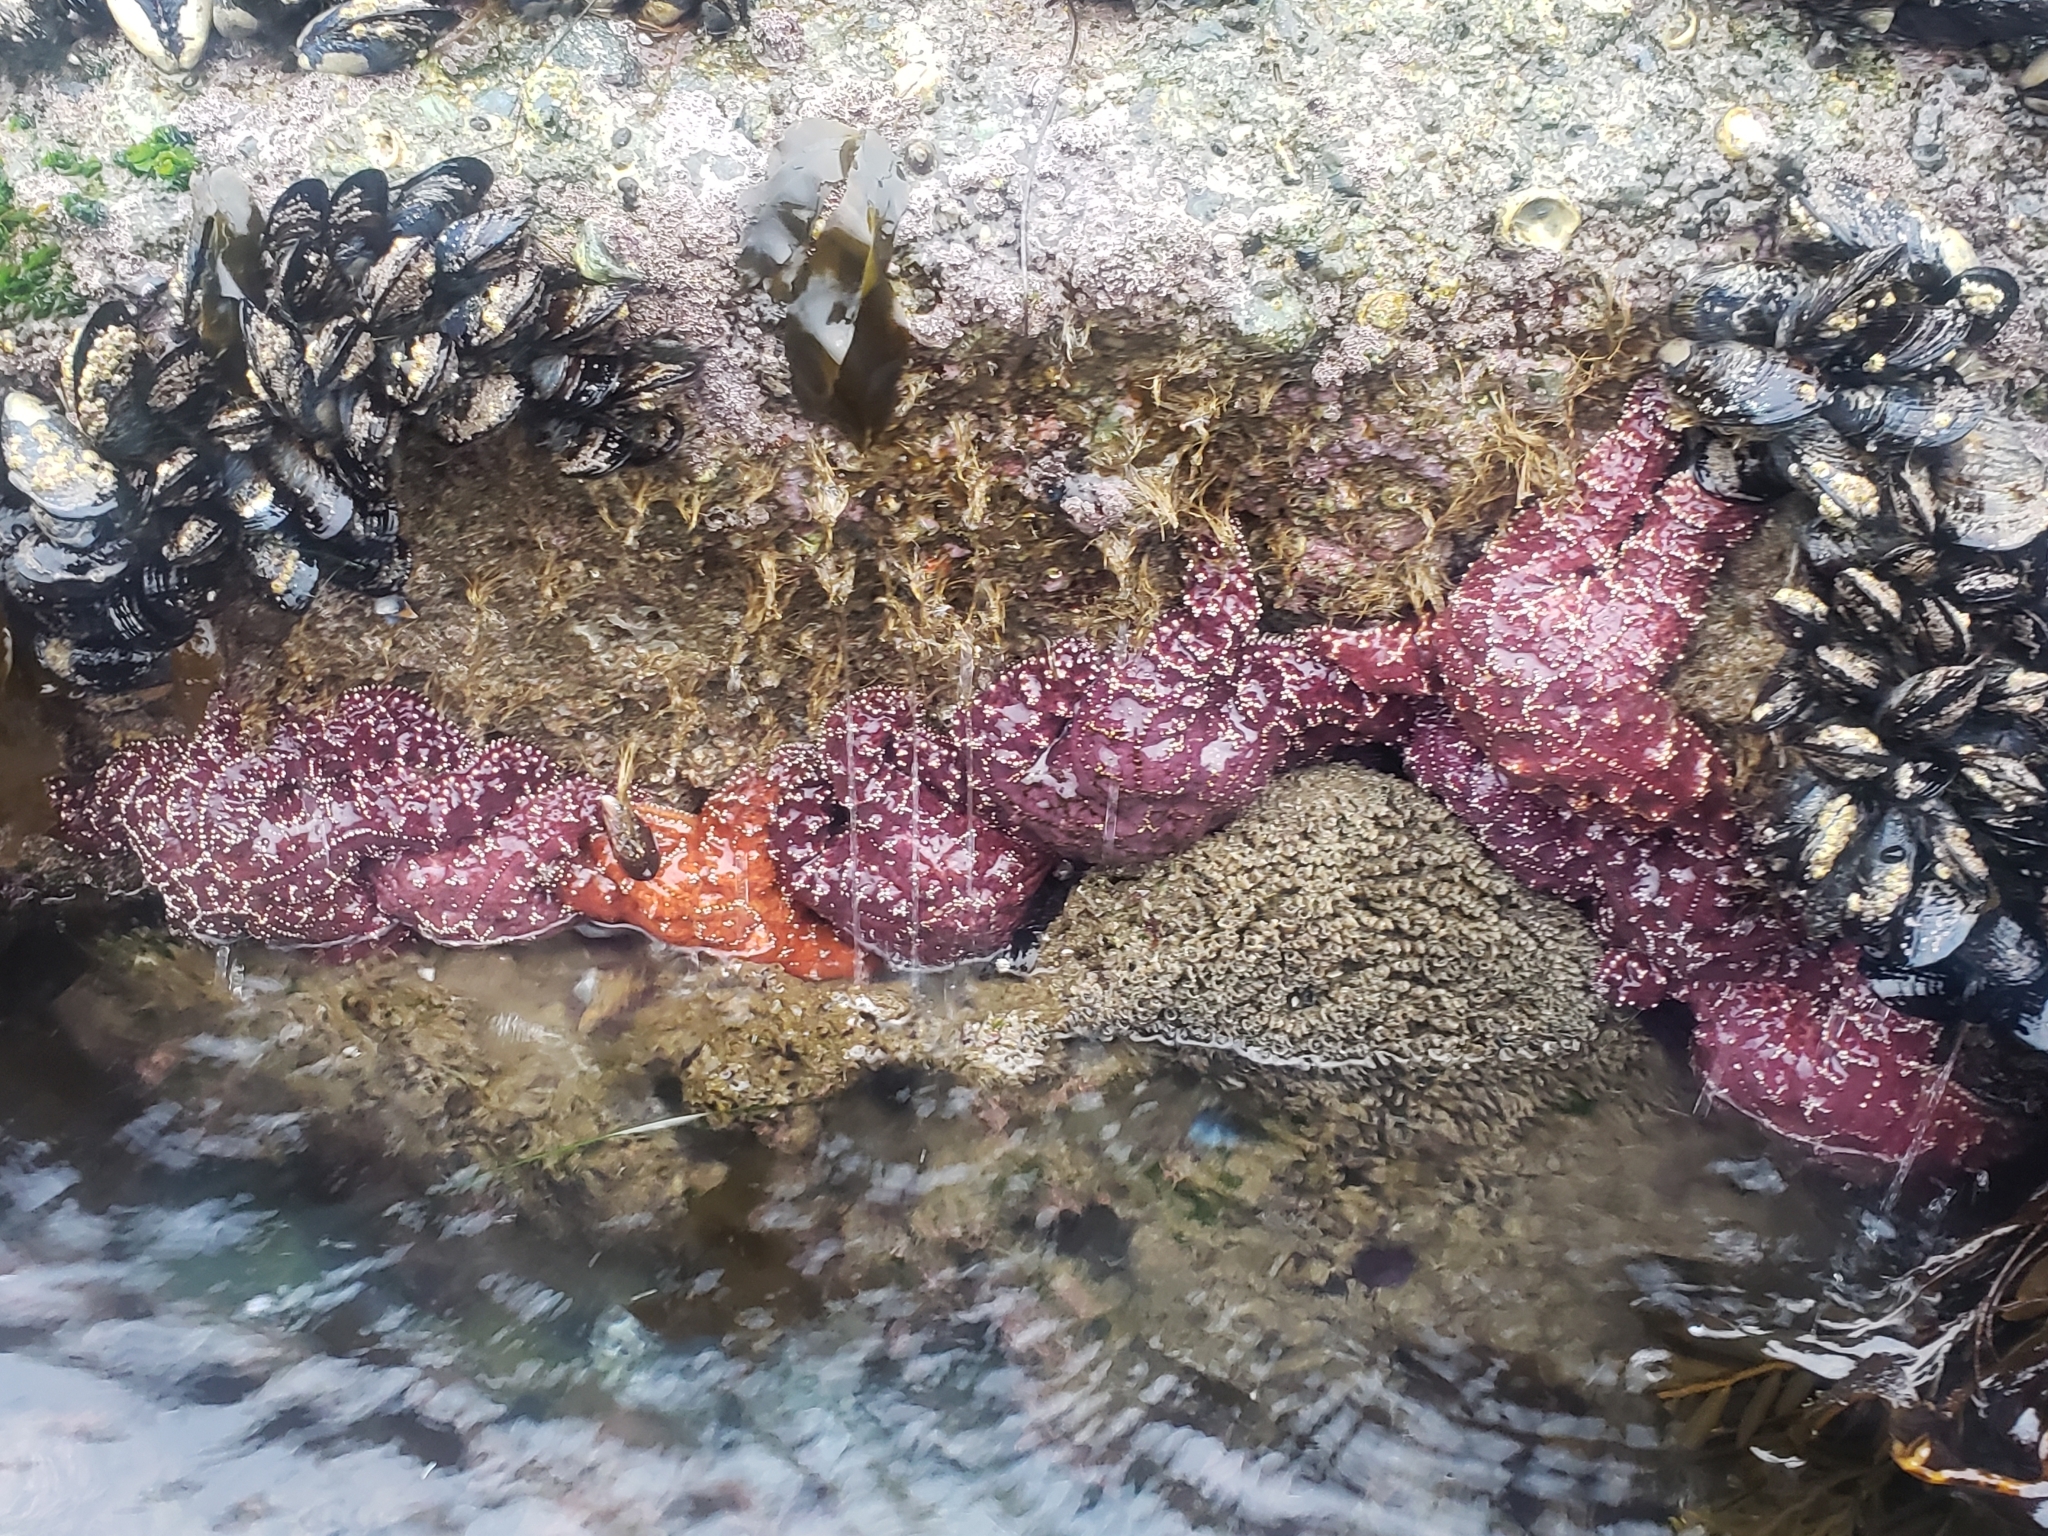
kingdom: Animalia
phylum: Echinodermata
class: Asteroidea
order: Forcipulatida
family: Asteriidae
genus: Pisaster
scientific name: Pisaster ochraceus
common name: Ochre stars
